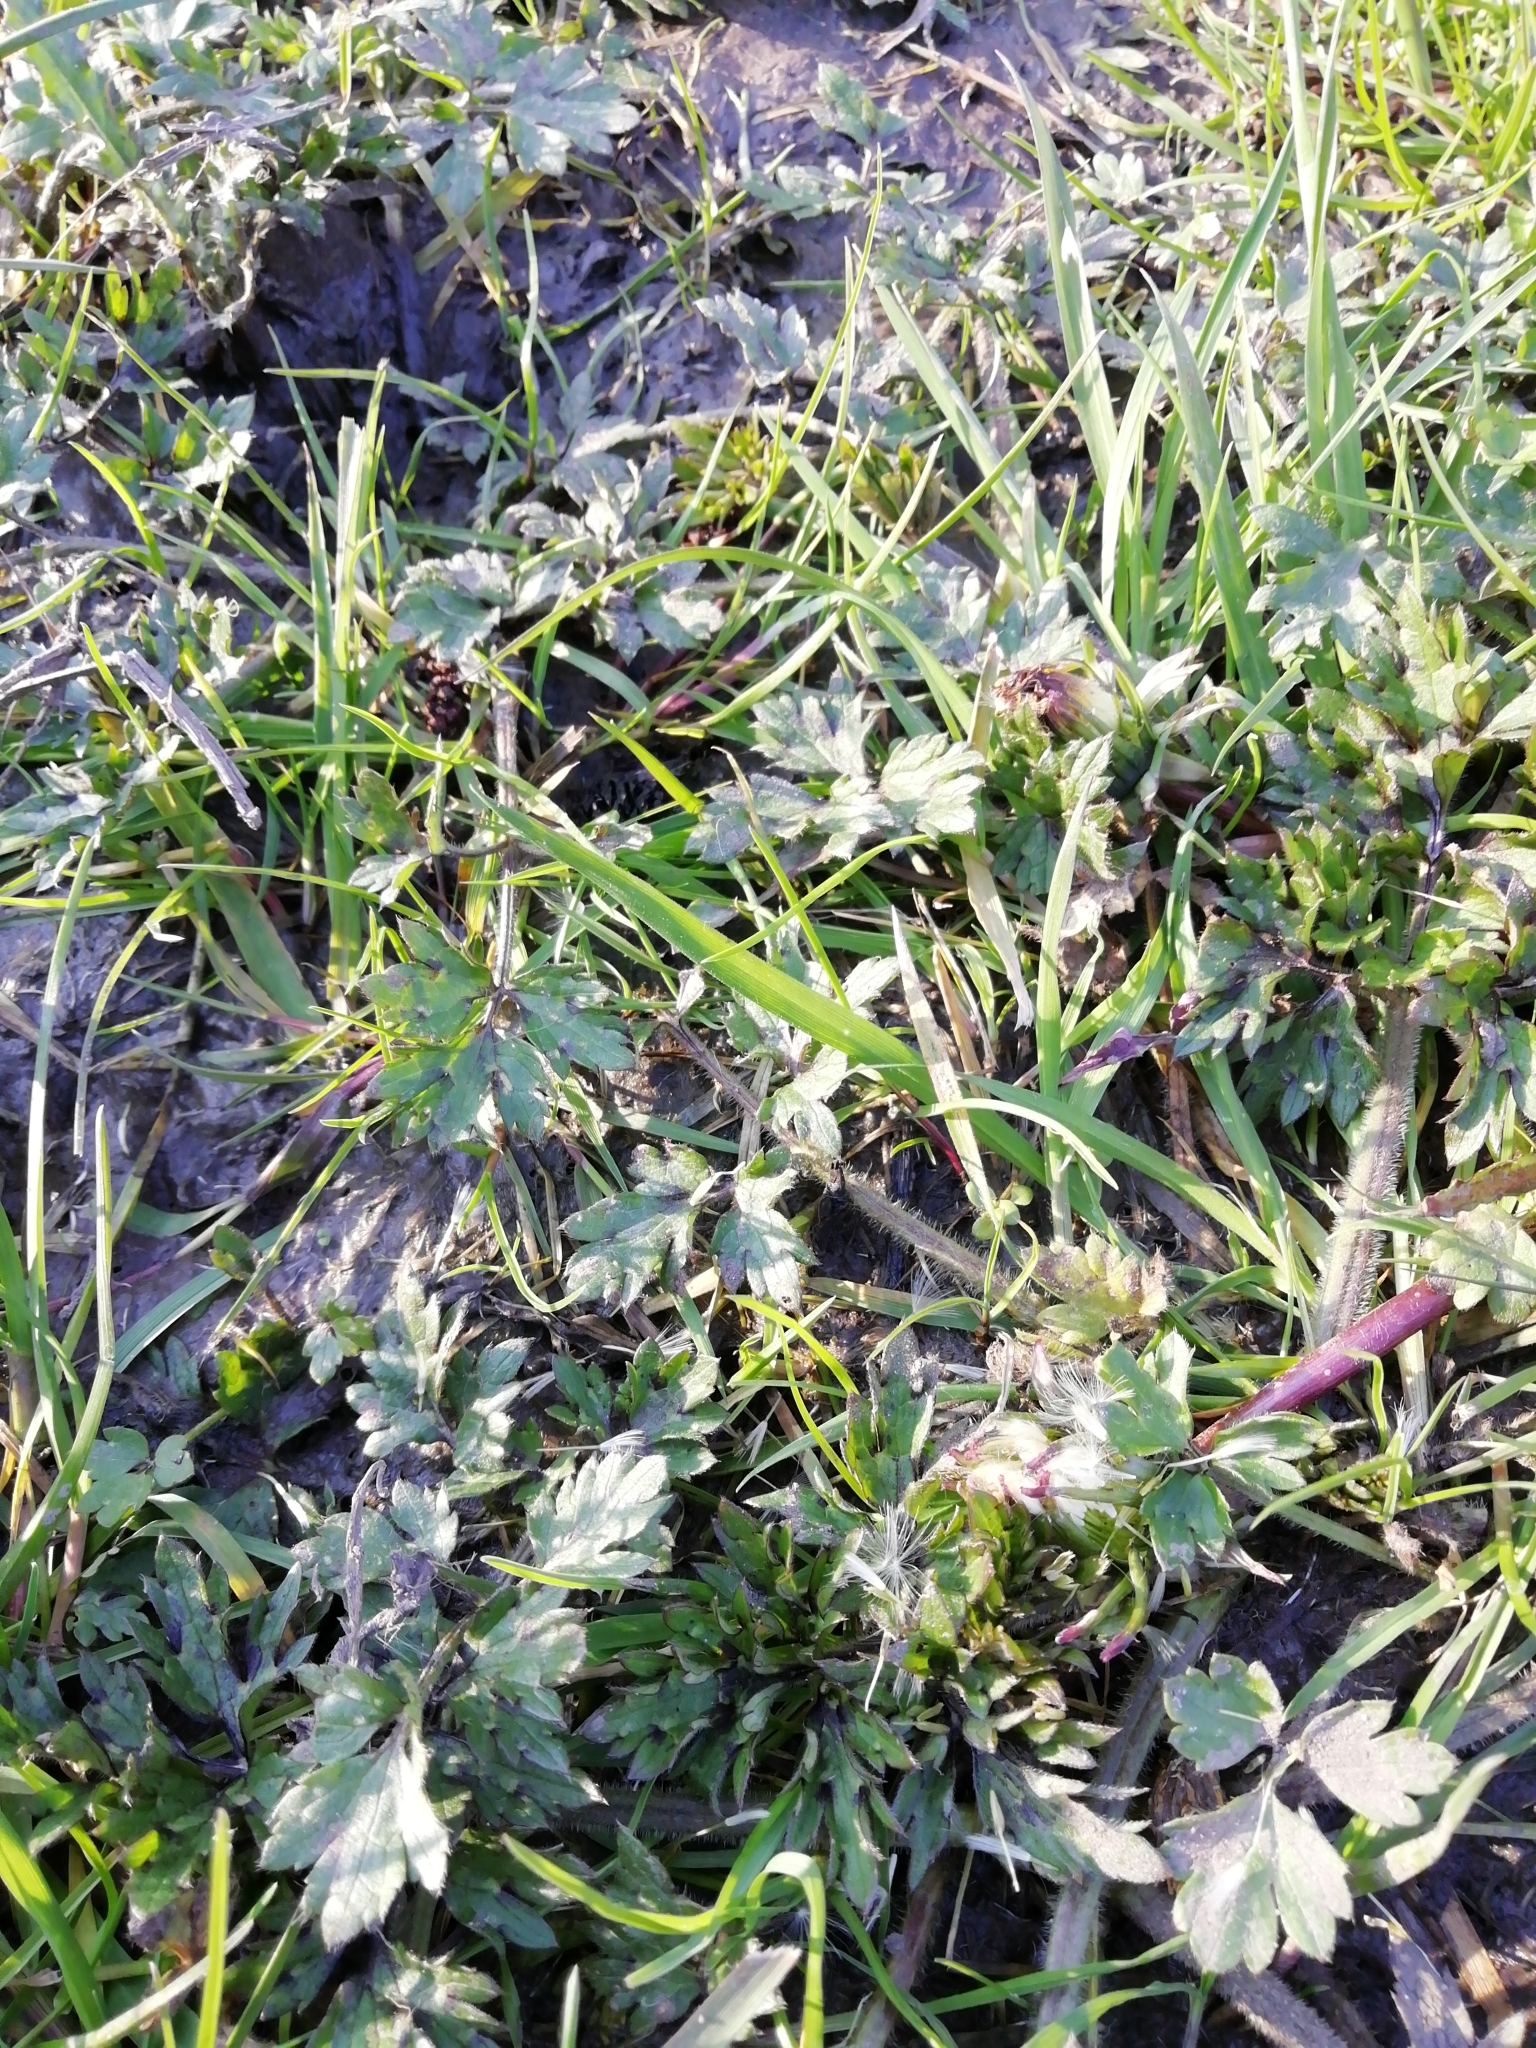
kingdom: Plantae
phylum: Tracheophyta
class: Magnoliopsida
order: Ranunculales
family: Ranunculaceae
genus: Ranunculus
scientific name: Ranunculus repens
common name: Creeping buttercup
